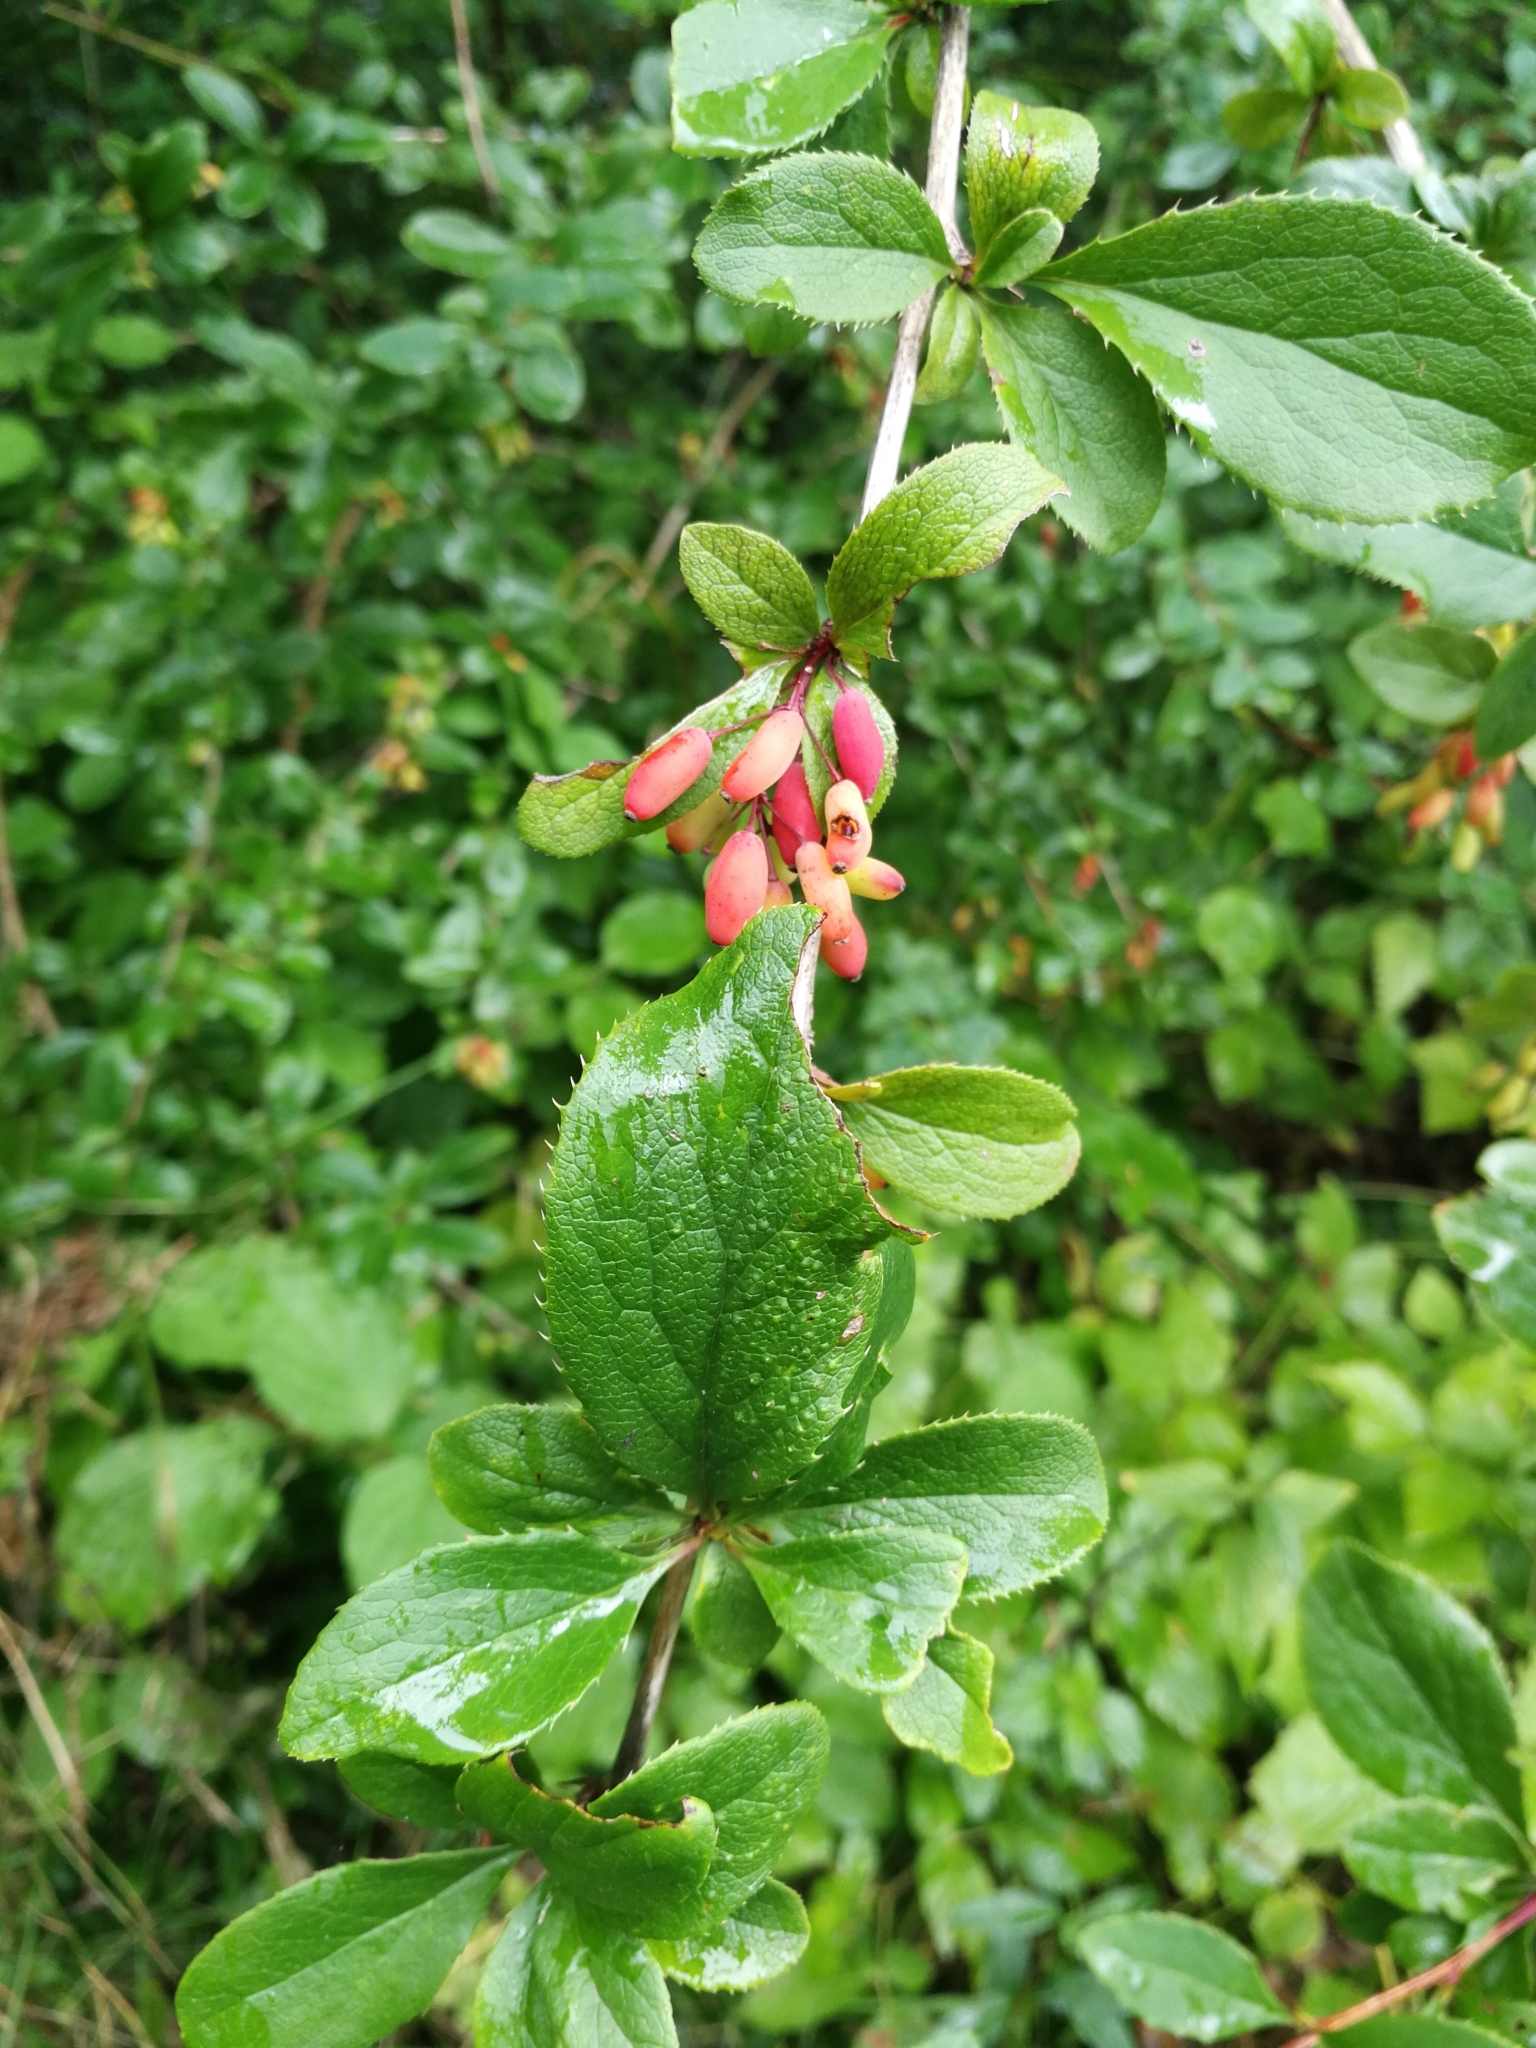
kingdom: Plantae
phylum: Tracheophyta
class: Magnoliopsida
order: Ranunculales
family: Berberidaceae
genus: Berberis
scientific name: Berberis vulgaris
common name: Barberry
